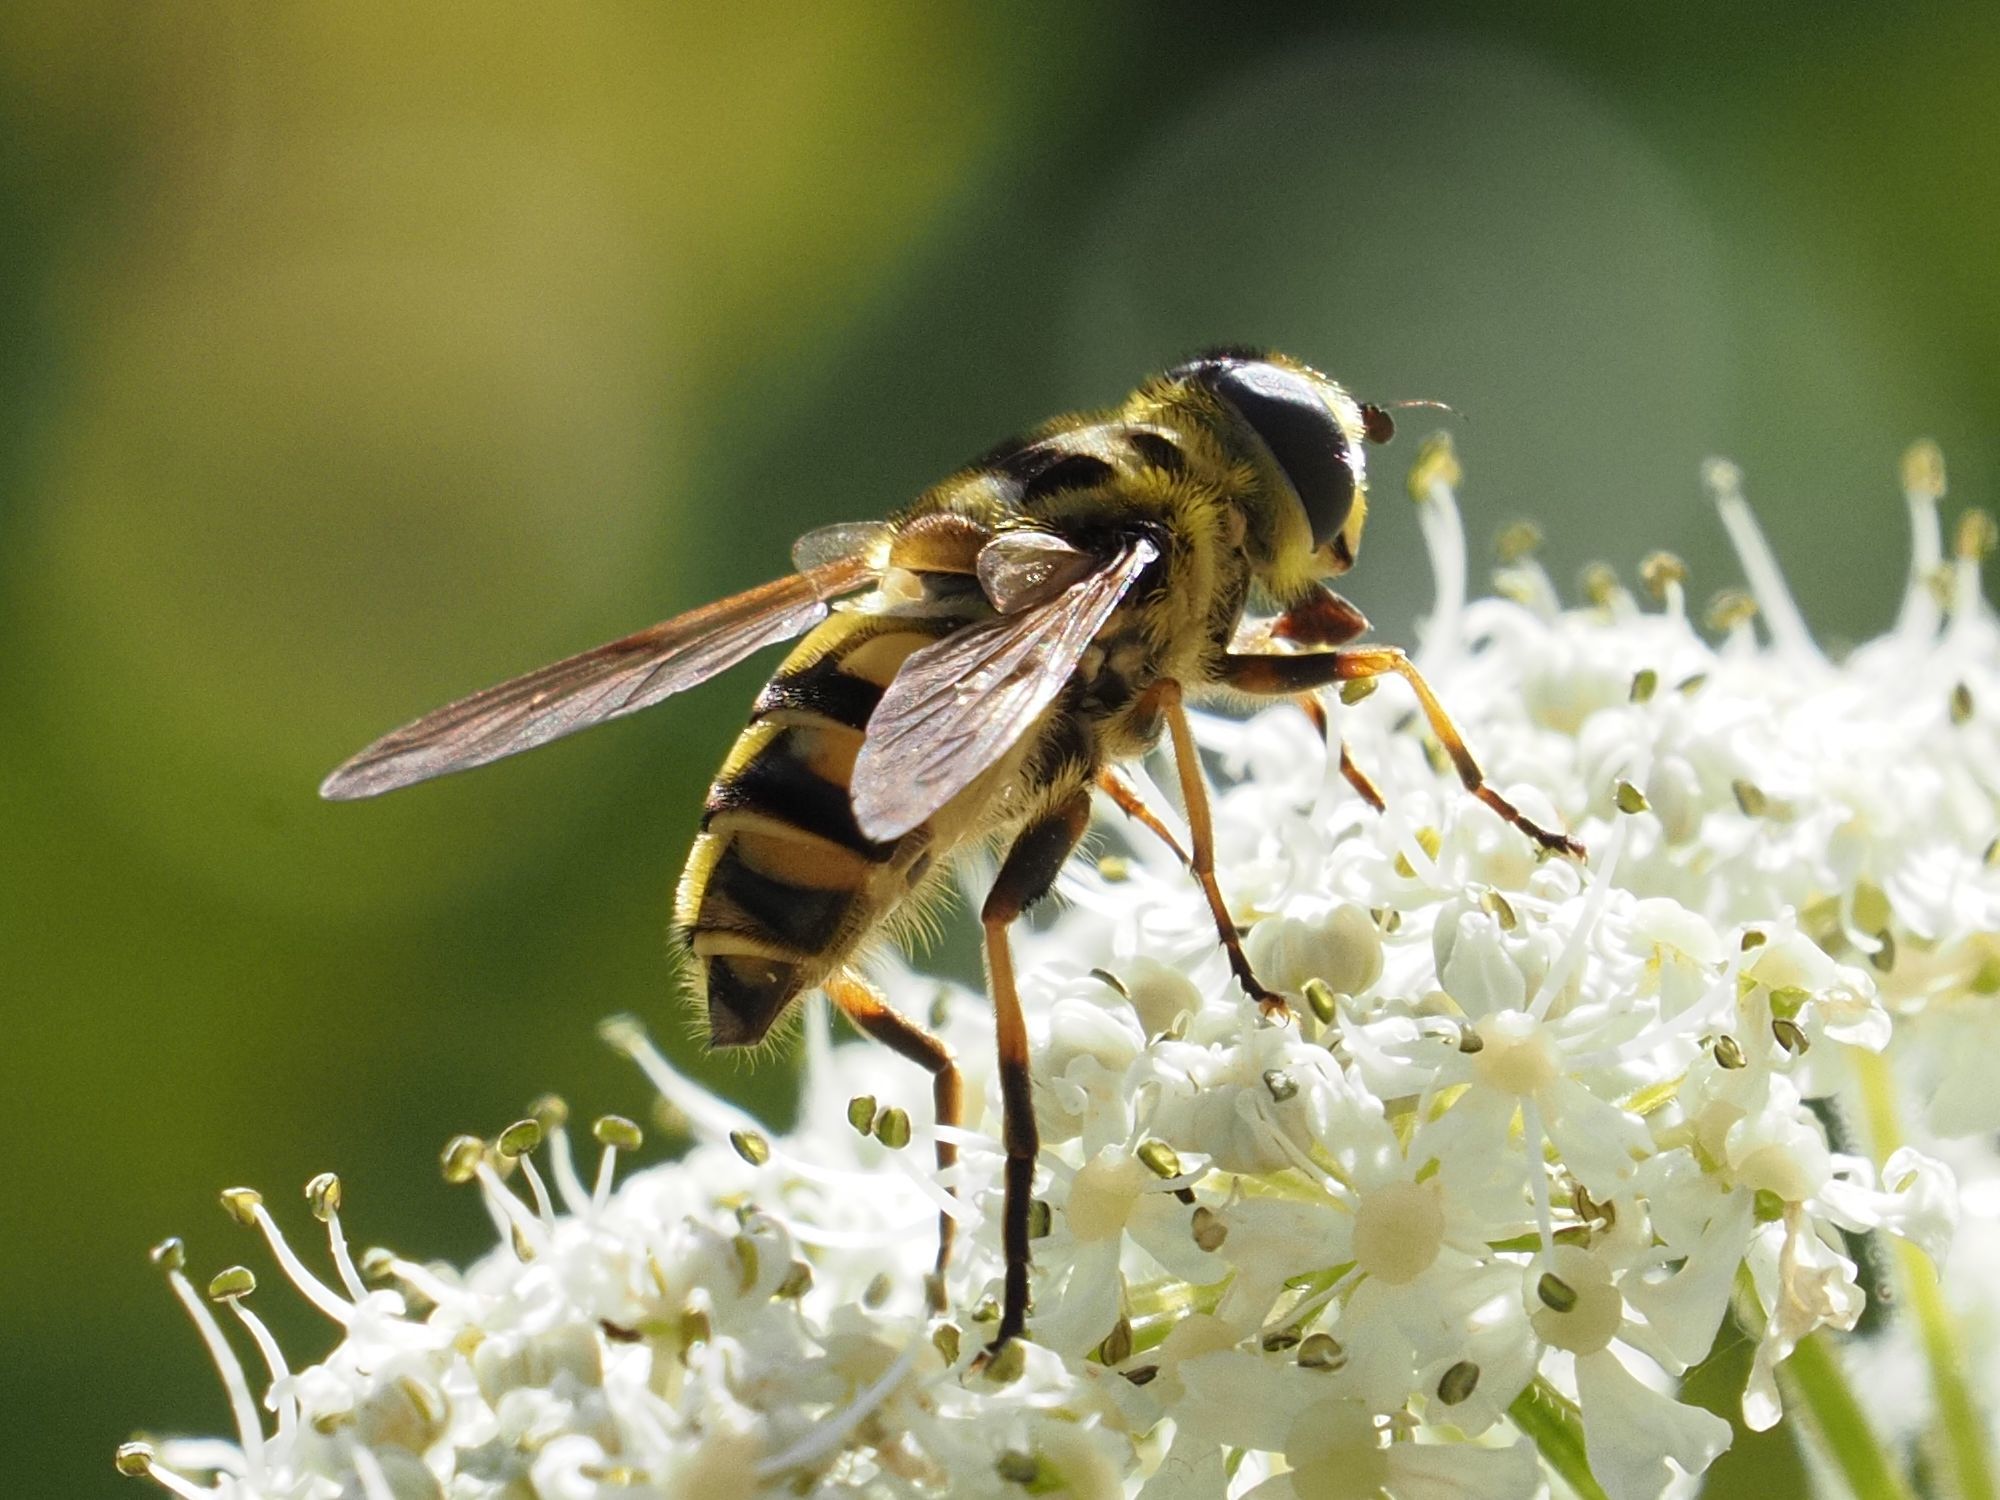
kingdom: Animalia
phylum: Arthropoda
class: Insecta
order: Diptera
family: Syrphidae
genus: Myathropa
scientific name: Myathropa florea
